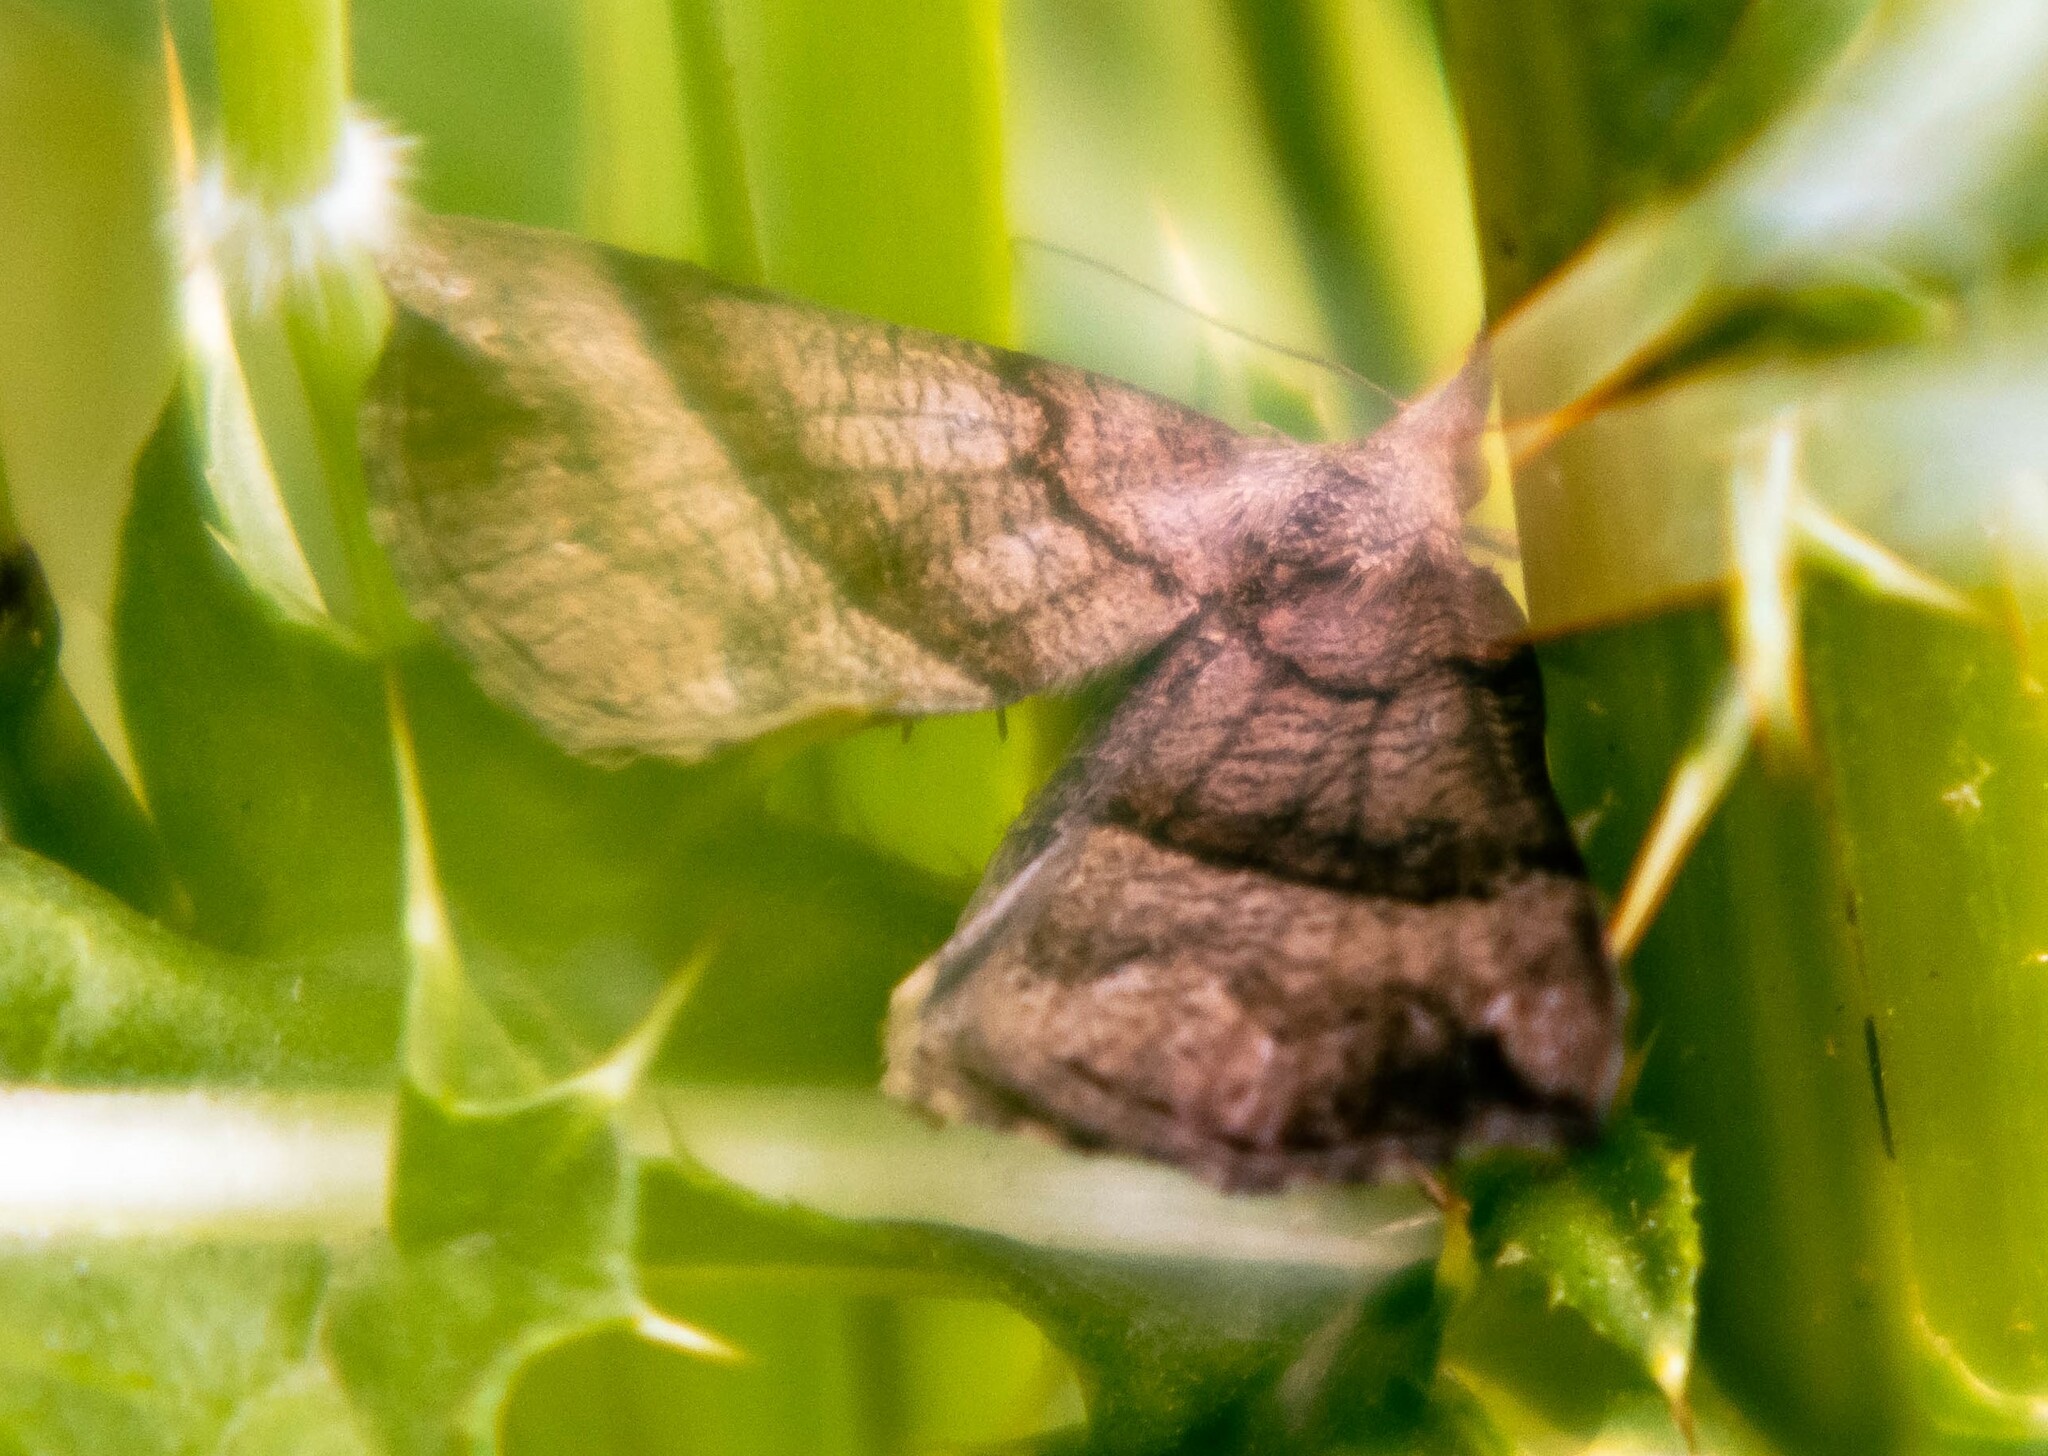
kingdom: Animalia
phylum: Arthropoda
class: Insecta
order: Lepidoptera
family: Erebidae
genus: Hypena
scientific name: Hypena proboscidalis
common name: Snout
